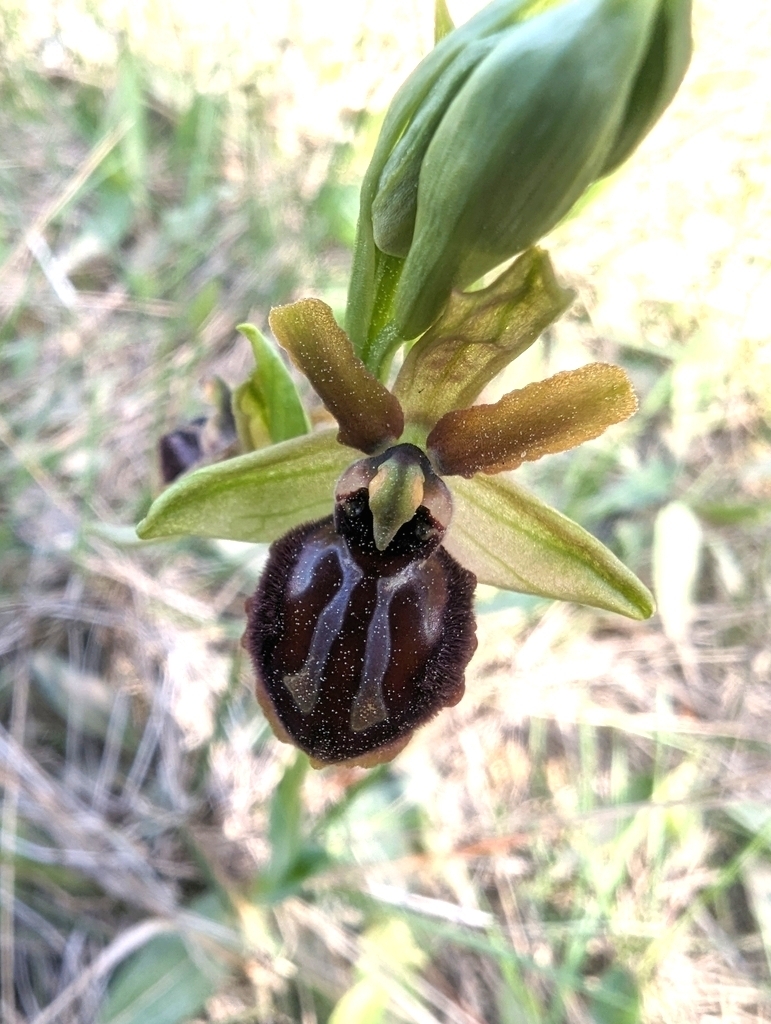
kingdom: Plantae
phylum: Tracheophyta
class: Liliopsida
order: Asparagales
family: Orchidaceae
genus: Ophrys
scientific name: Ophrys sphegodes
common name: Early spider-orchid
